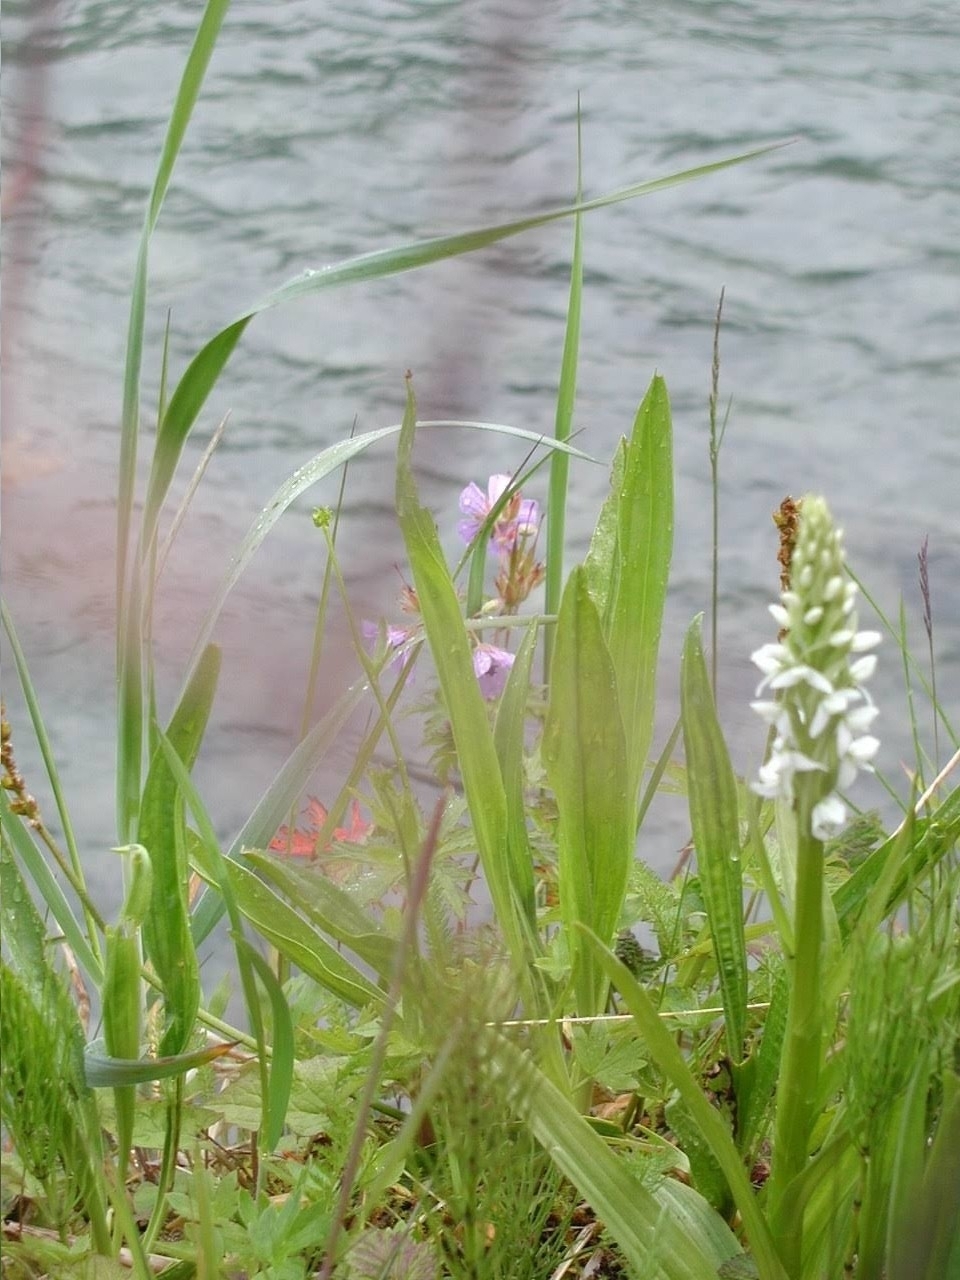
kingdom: Plantae
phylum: Tracheophyta
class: Liliopsida
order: Asparagales
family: Orchidaceae
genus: Platanthera
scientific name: Platanthera dilatata
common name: Bog candles
